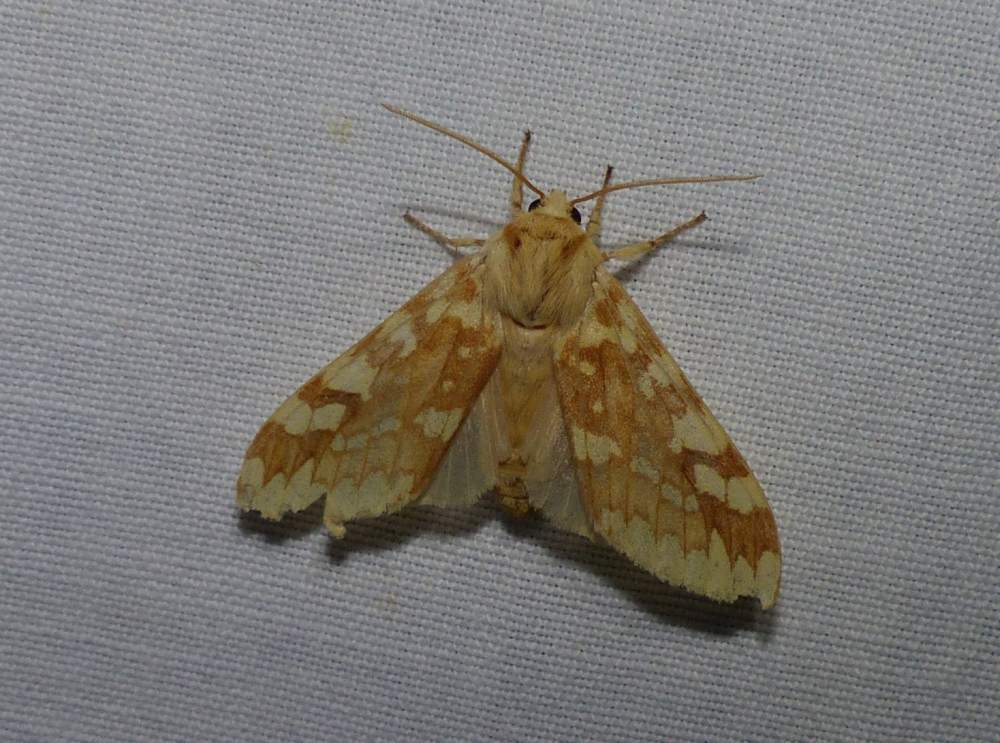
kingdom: Animalia
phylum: Arthropoda
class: Insecta
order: Lepidoptera
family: Erebidae
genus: Lophocampa
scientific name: Lophocampa maculata
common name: Spotted tussock moth
